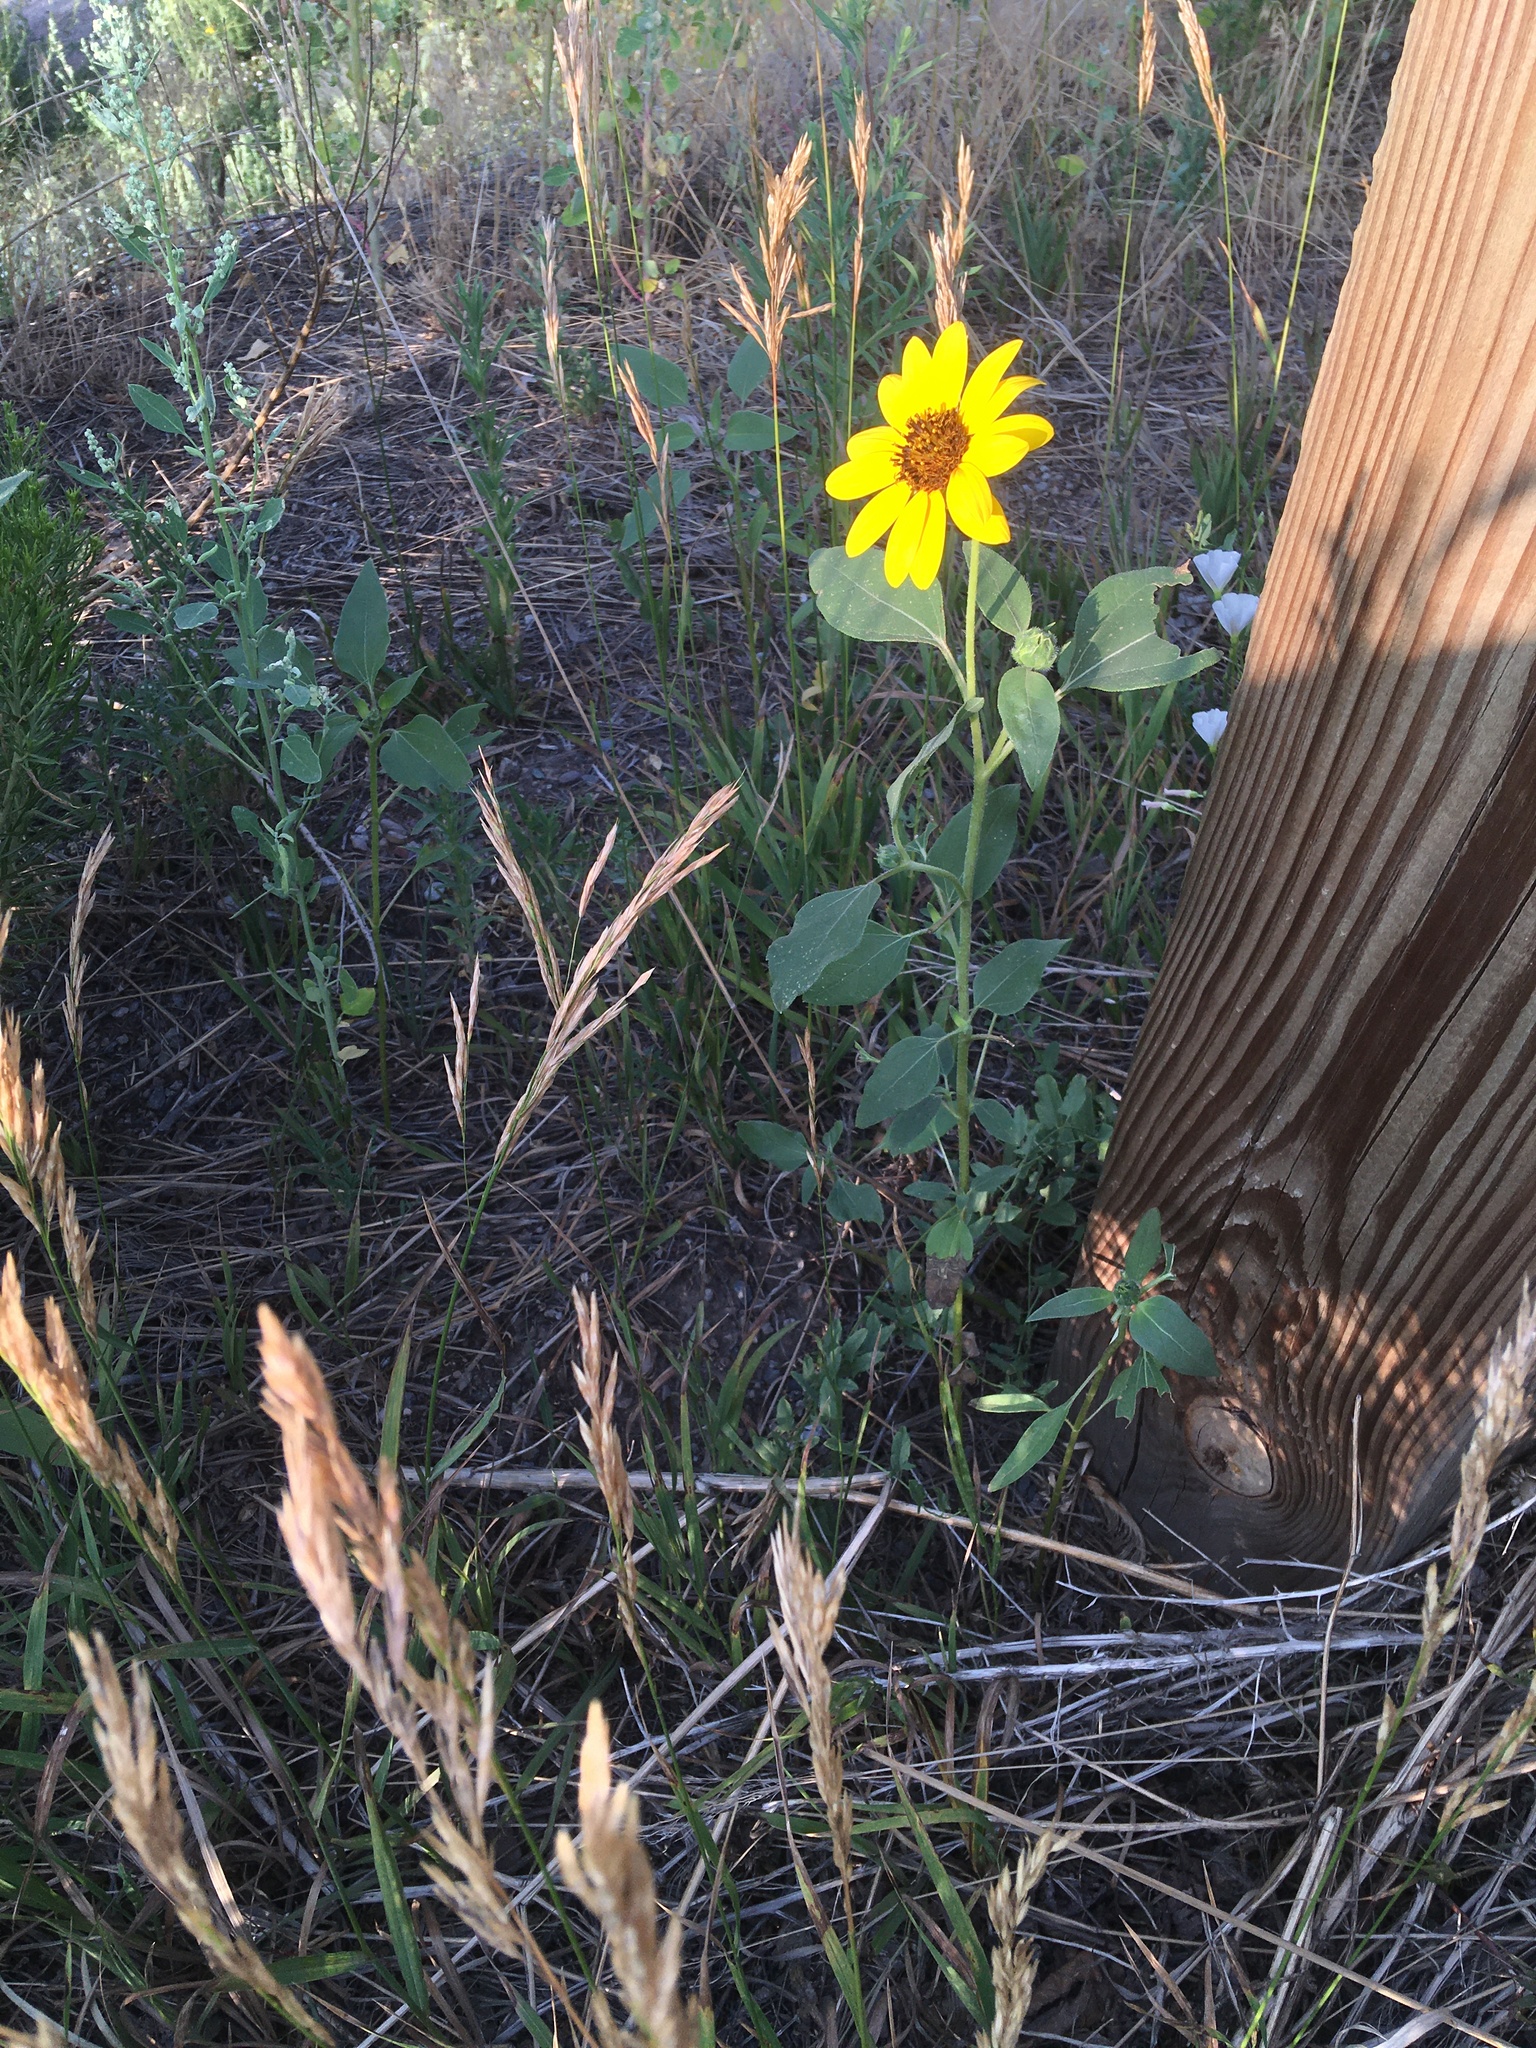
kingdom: Plantae
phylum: Tracheophyta
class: Magnoliopsida
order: Asterales
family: Asteraceae
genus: Helianthus
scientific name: Helianthus annuus
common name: Sunflower
